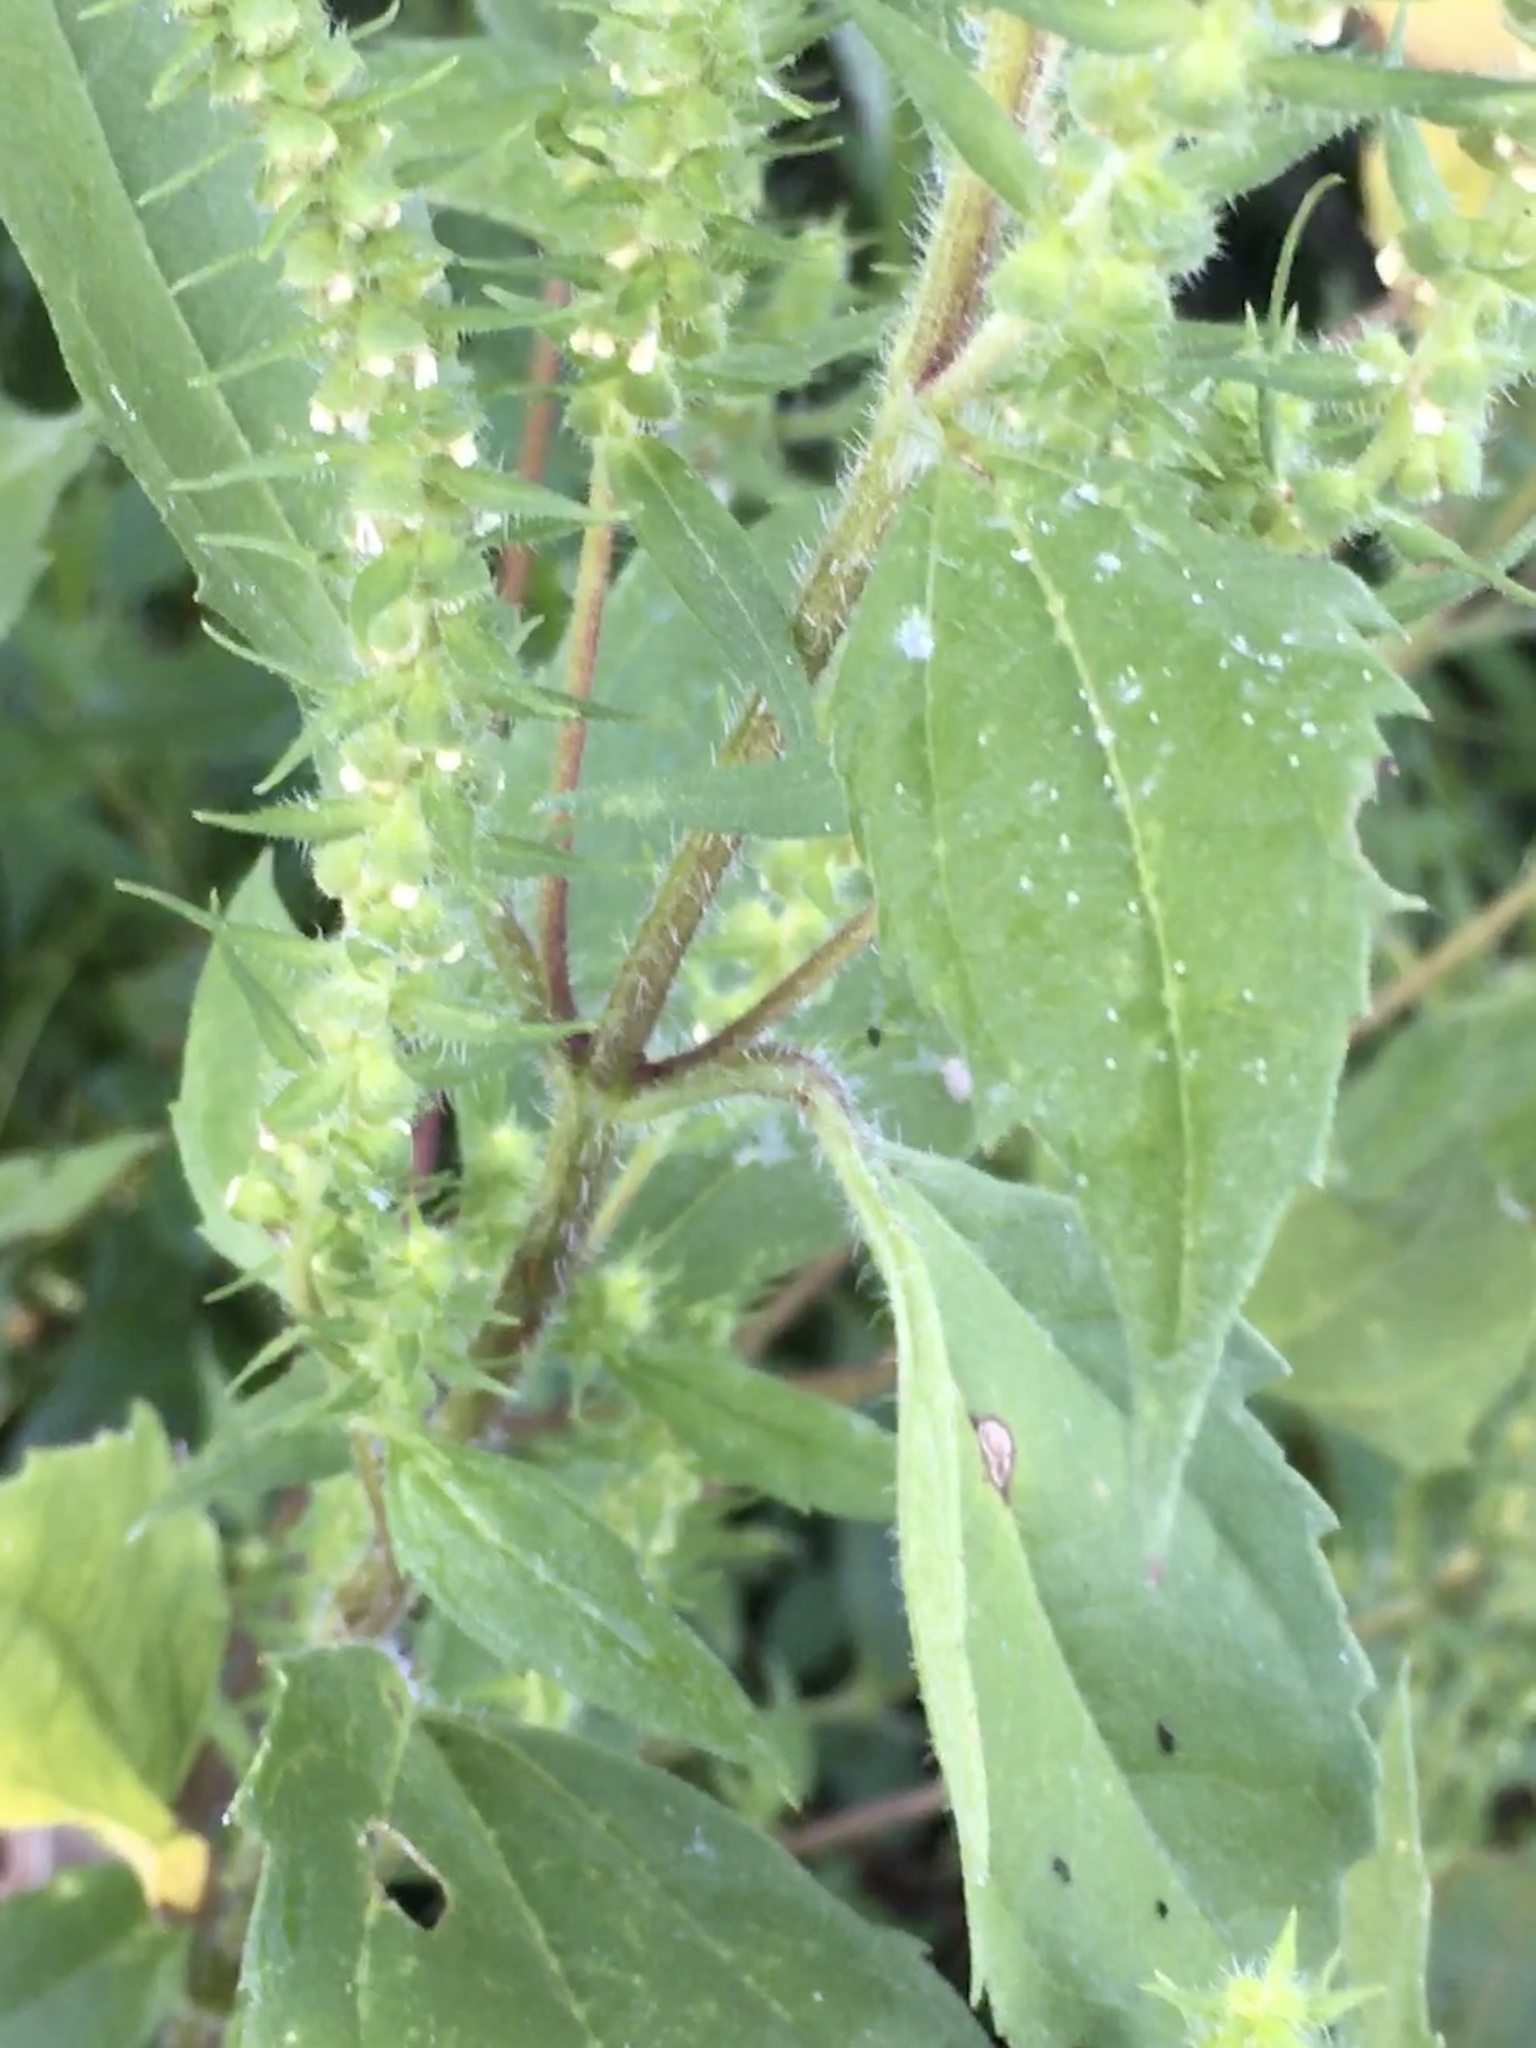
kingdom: Plantae
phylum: Tracheophyta
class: Magnoliopsida
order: Asterales
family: Asteraceae
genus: Iva
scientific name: Iva annua
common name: Marsh-elder
